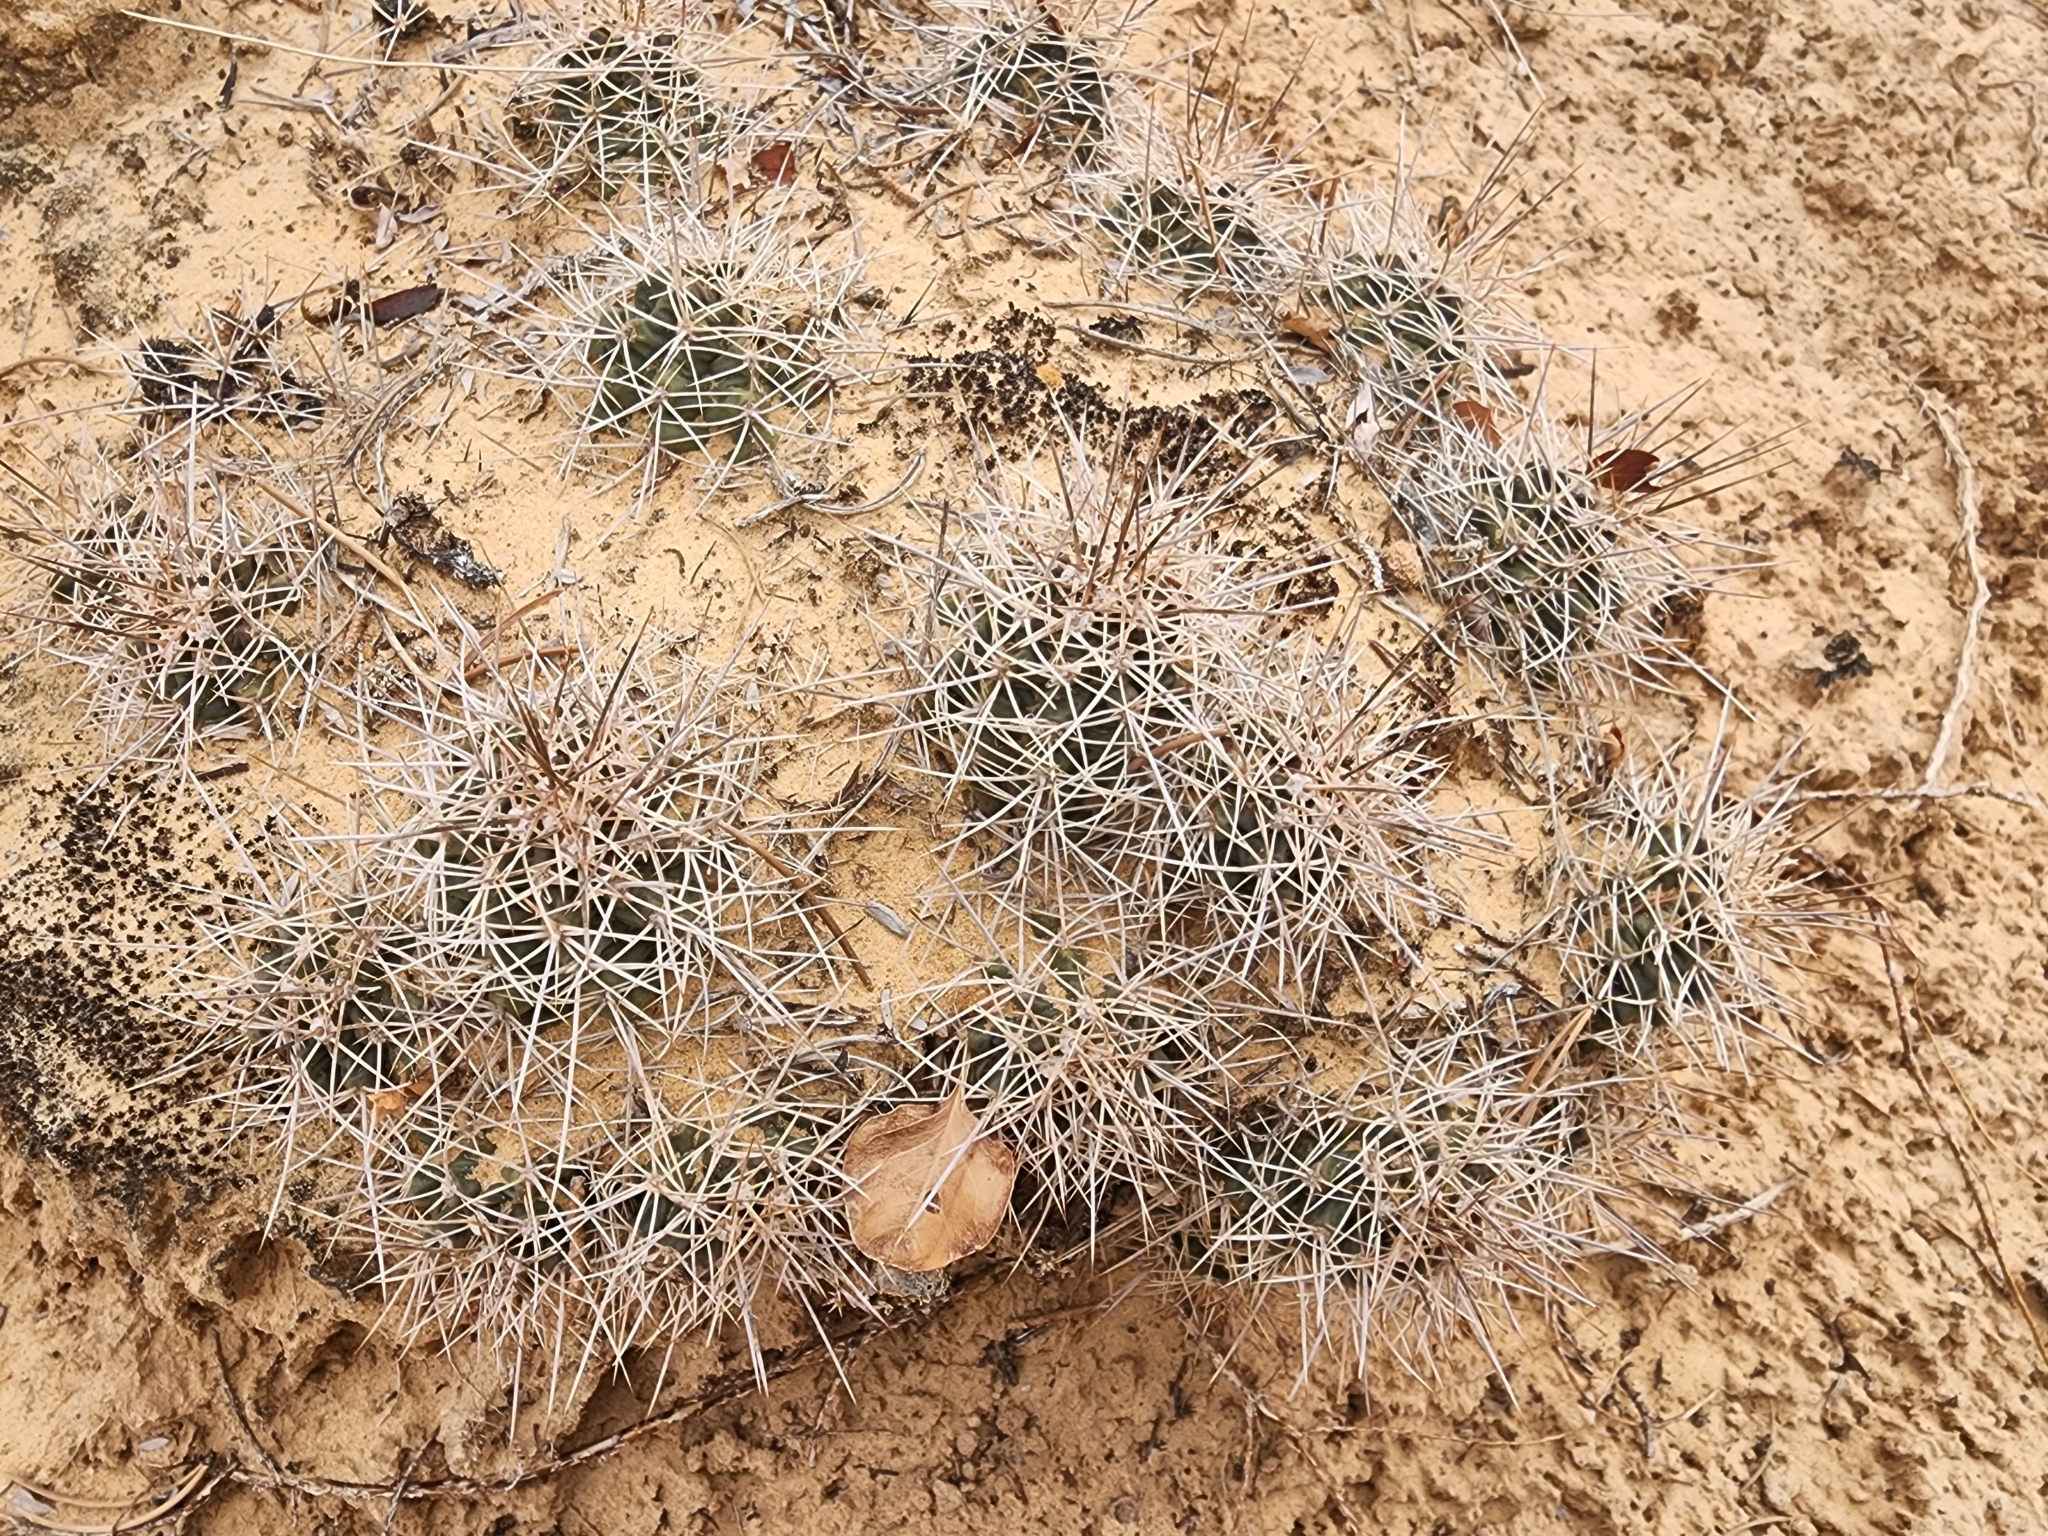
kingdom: Plantae
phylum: Tracheophyta
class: Magnoliopsida
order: Caryophyllales
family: Cactaceae
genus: Echinocereus
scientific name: Echinocereus triglochidiatus
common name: Claretcup hedgehog
